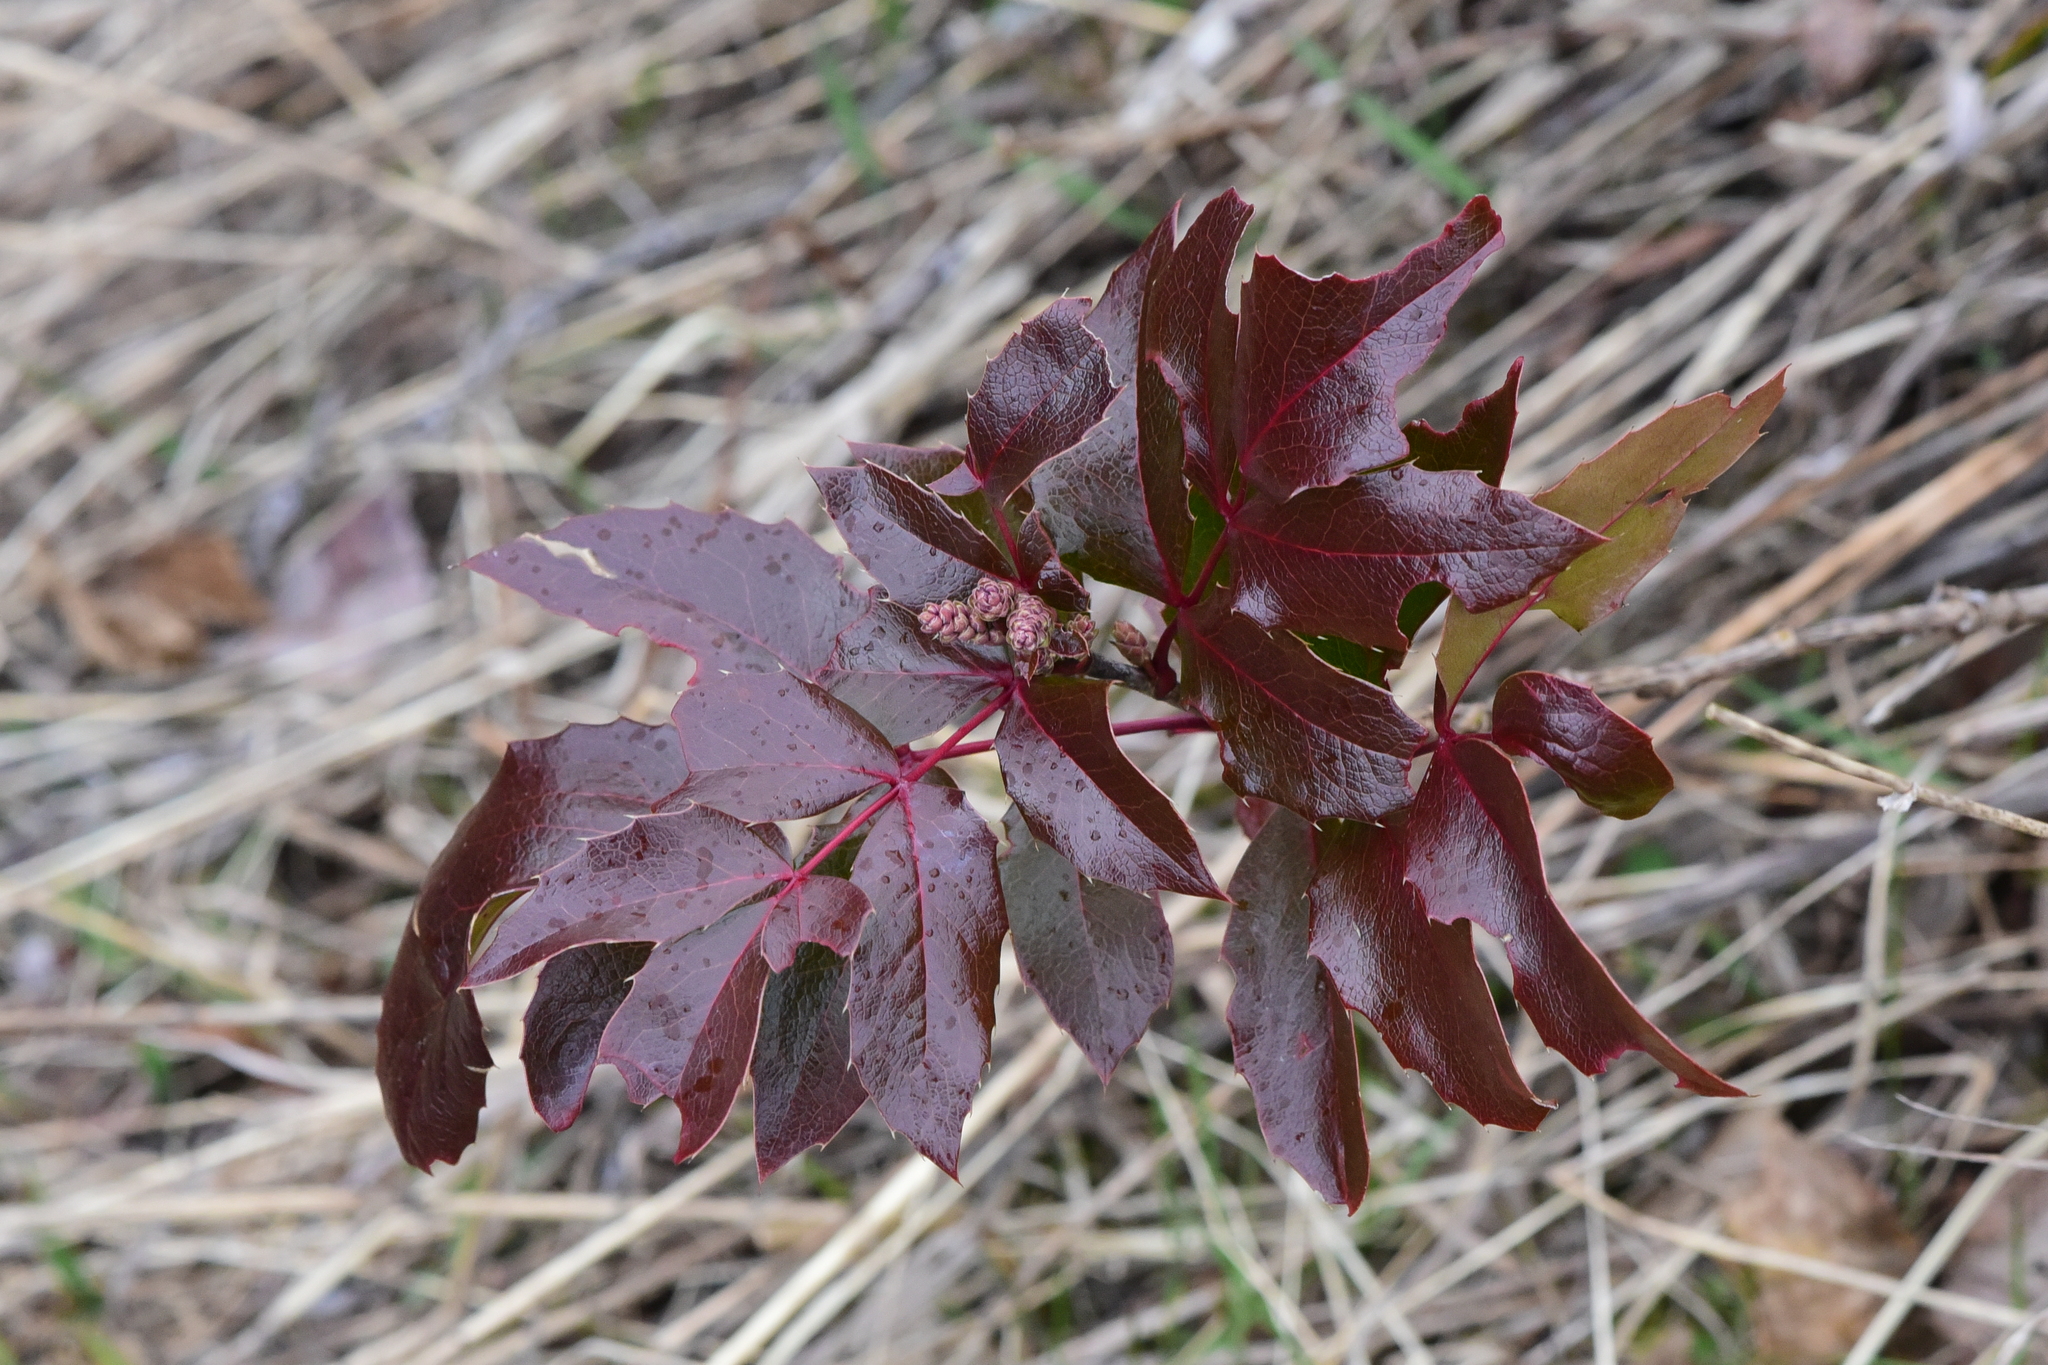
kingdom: Plantae
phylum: Tracheophyta
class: Magnoliopsida
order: Ranunculales
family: Berberidaceae
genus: Mahonia
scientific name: Mahonia aquifolium
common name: Oregon-grape
